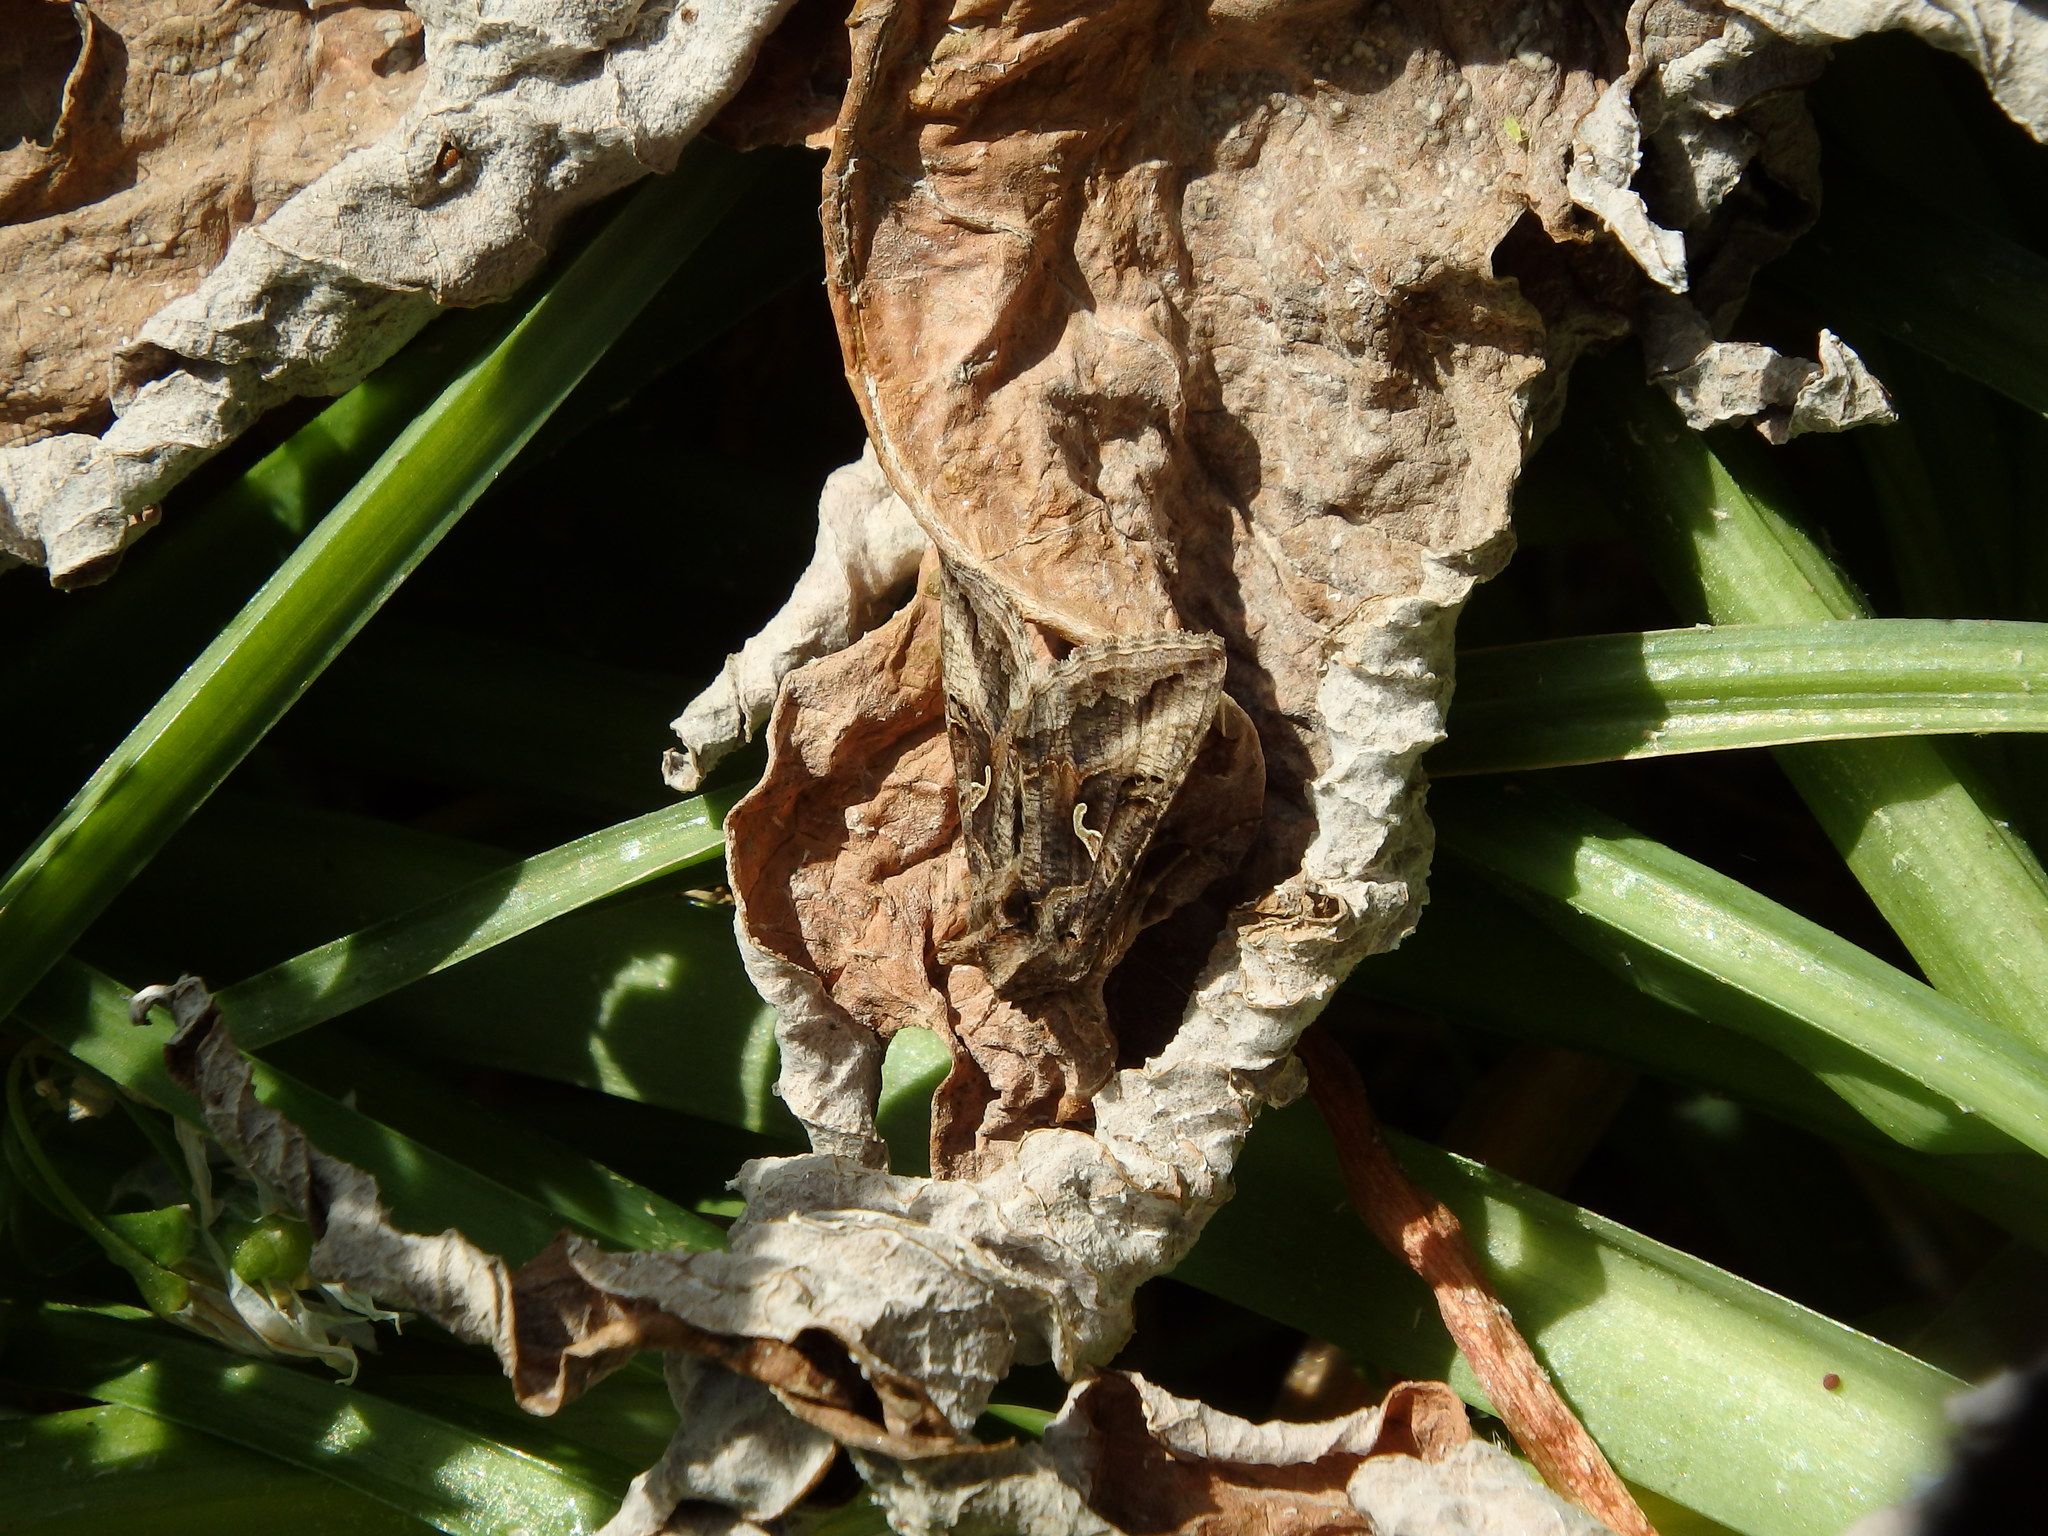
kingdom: Animalia
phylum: Arthropoda
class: Insecta
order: Lepidoptera
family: Noctuidae
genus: Autographa
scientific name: Autographa gamma
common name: Silver y
